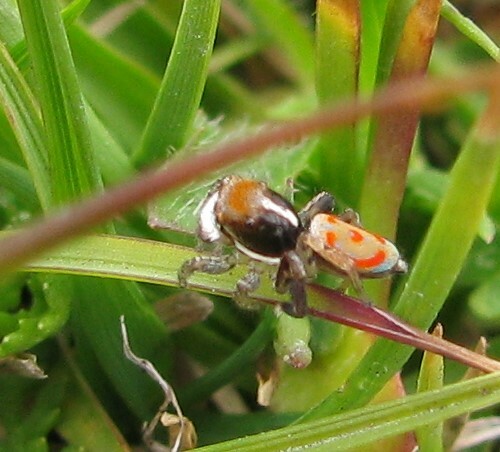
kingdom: Animalia
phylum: Arthropoda
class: Arachnida
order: Araneae
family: Salticidae
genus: Maratus
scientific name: Maratus pavonis
